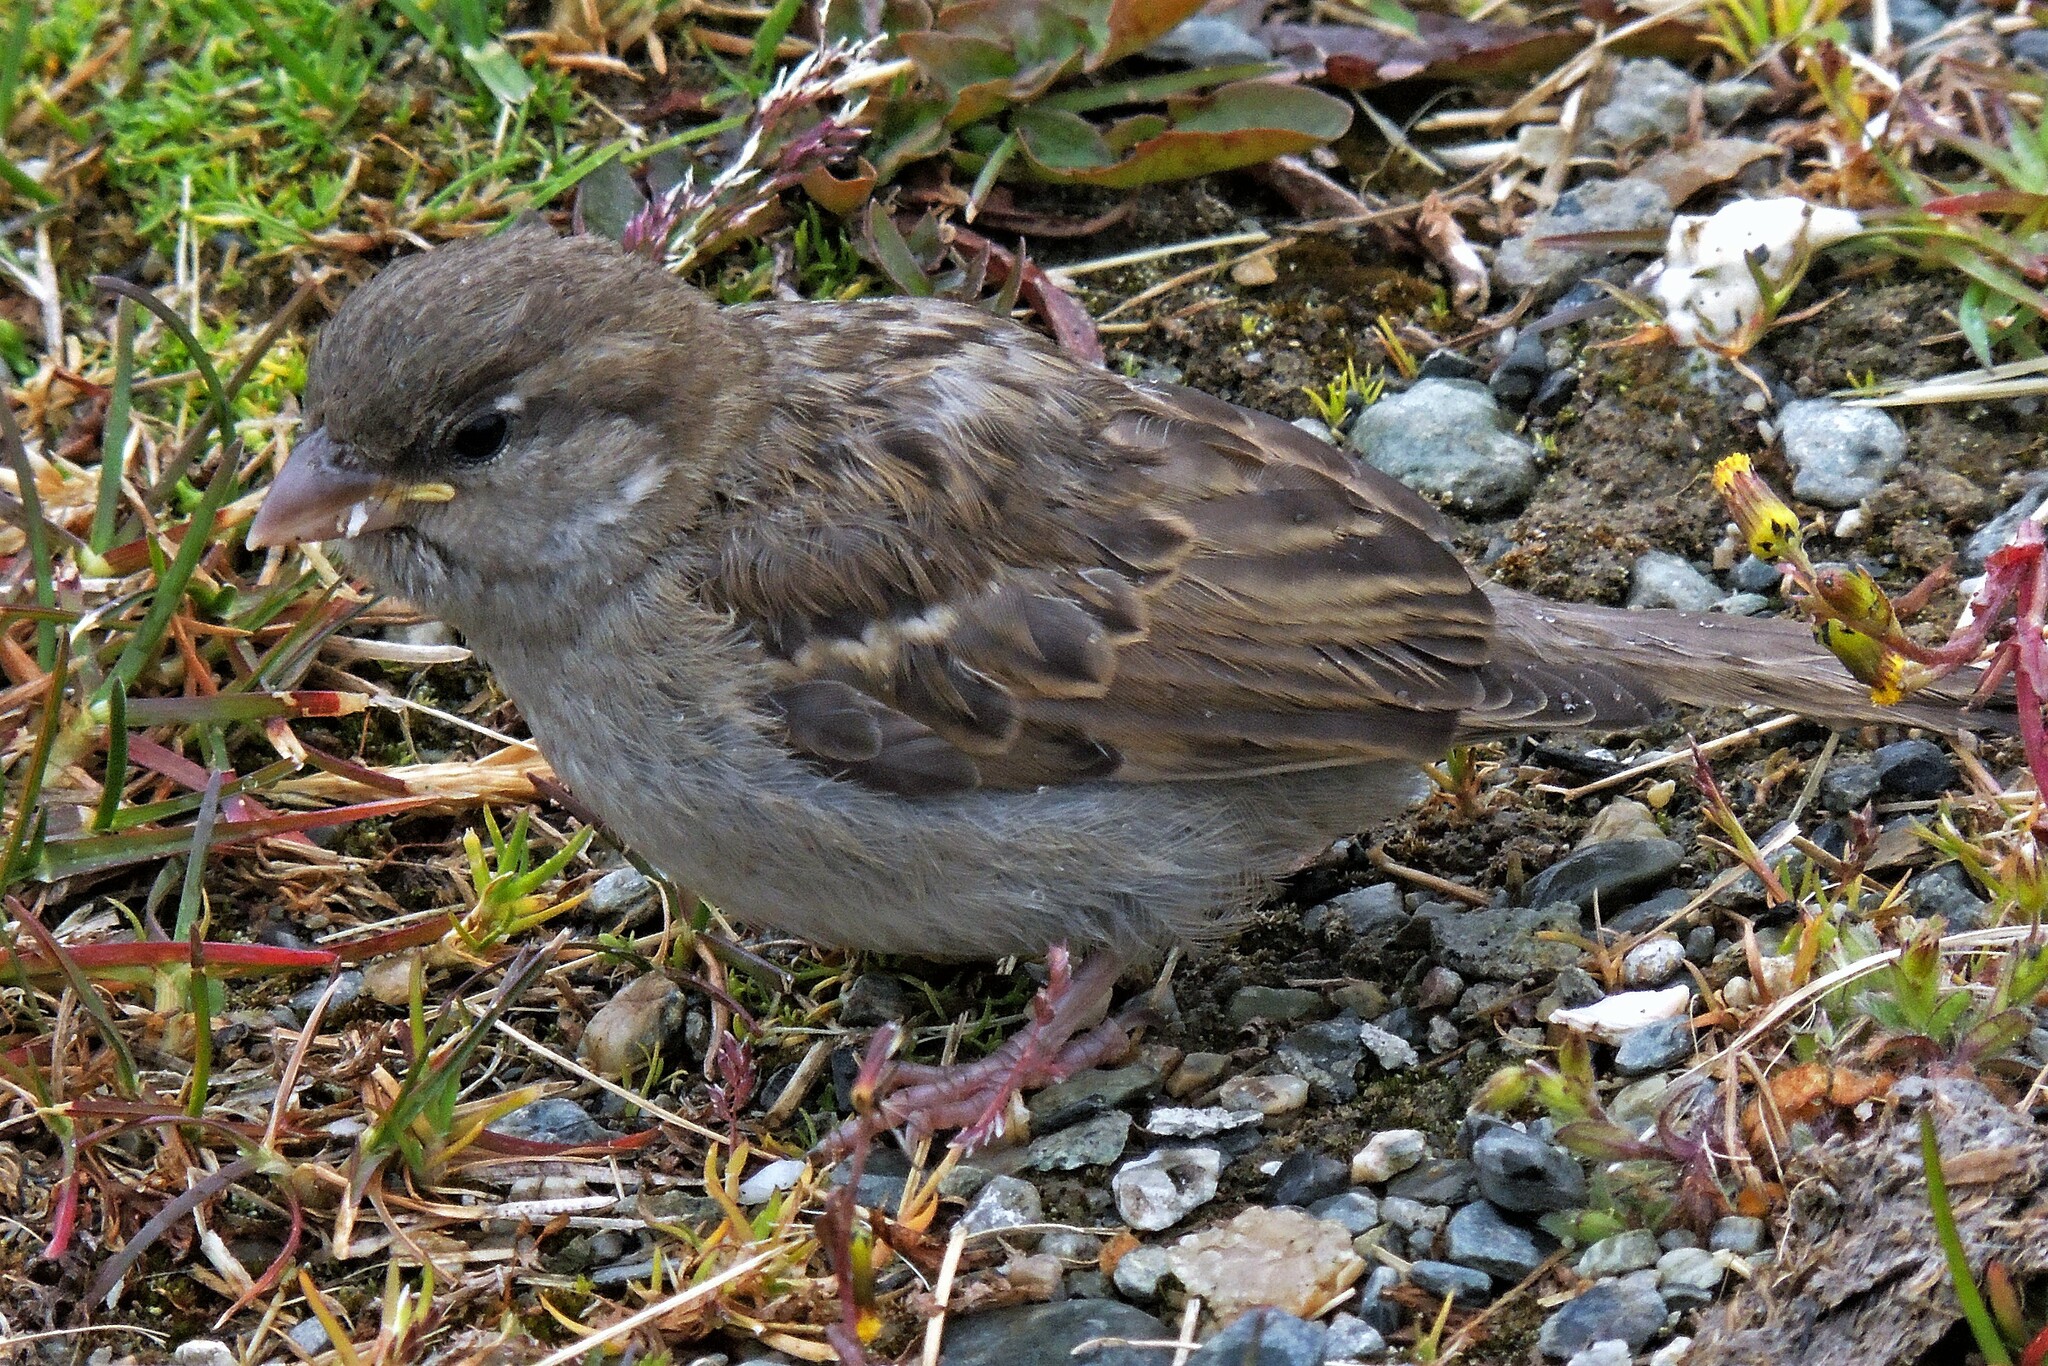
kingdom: Animalia
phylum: Chordata
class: Aves
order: Passeriformes
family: Passeridae
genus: Passer
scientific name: Passer domesticus
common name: House sparrow
